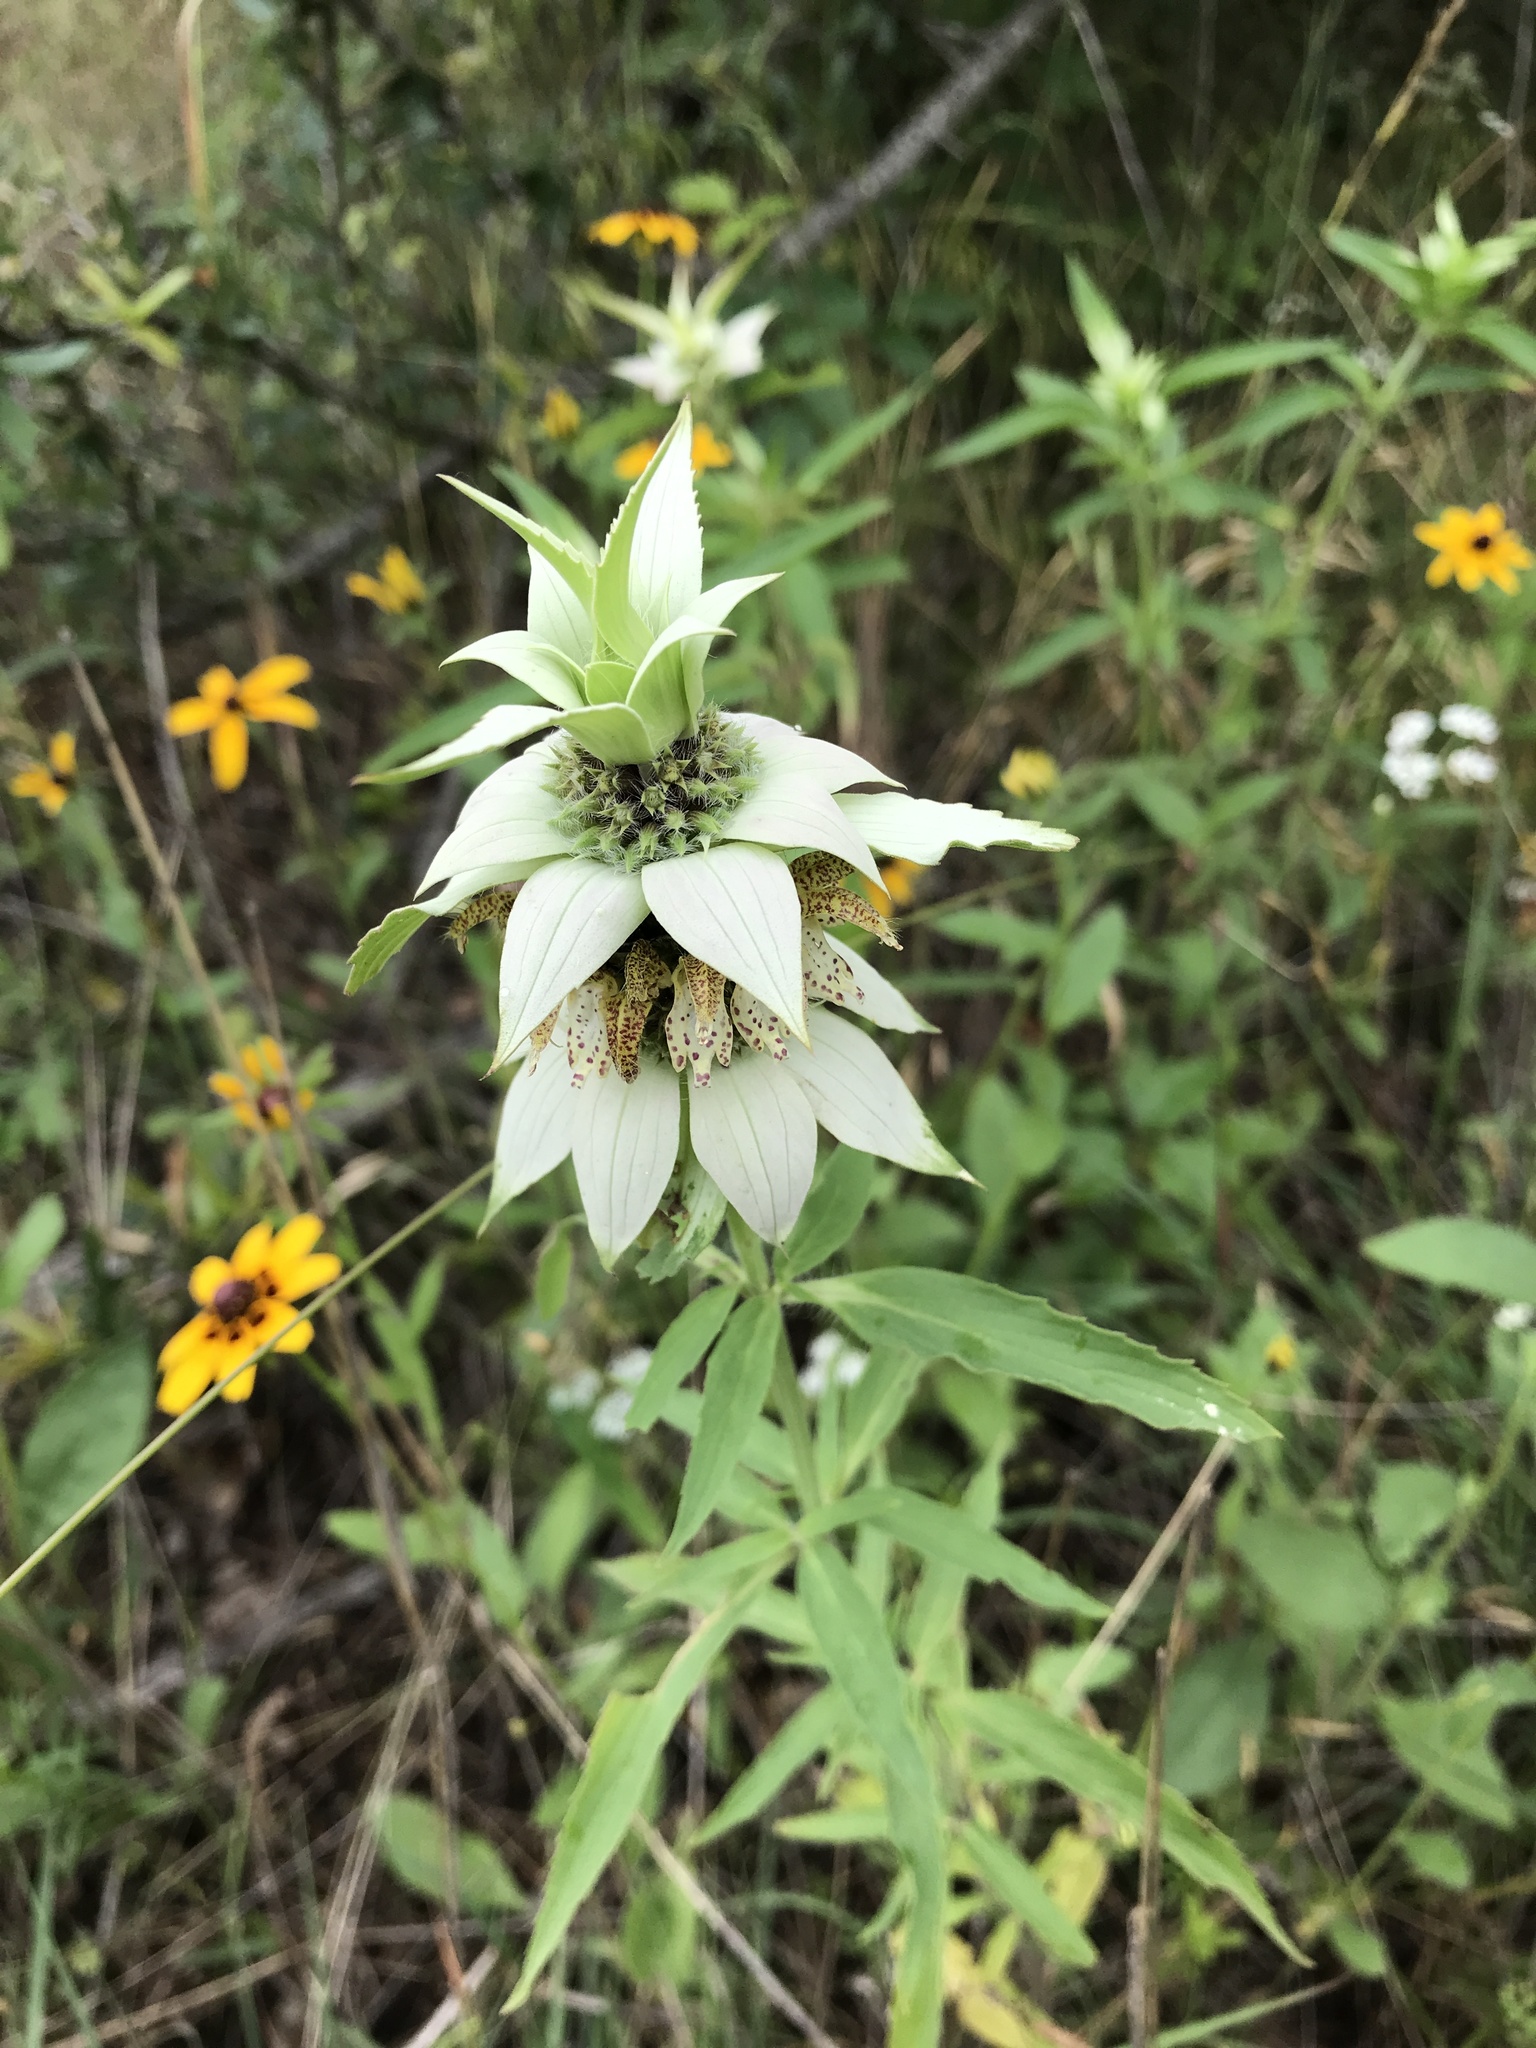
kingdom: Plantae
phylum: Tracheophyta
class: Magnoliopsida
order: Lamiales
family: Lamiaceae
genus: Monarda
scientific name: Monarda punctata
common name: Dotted monarda
